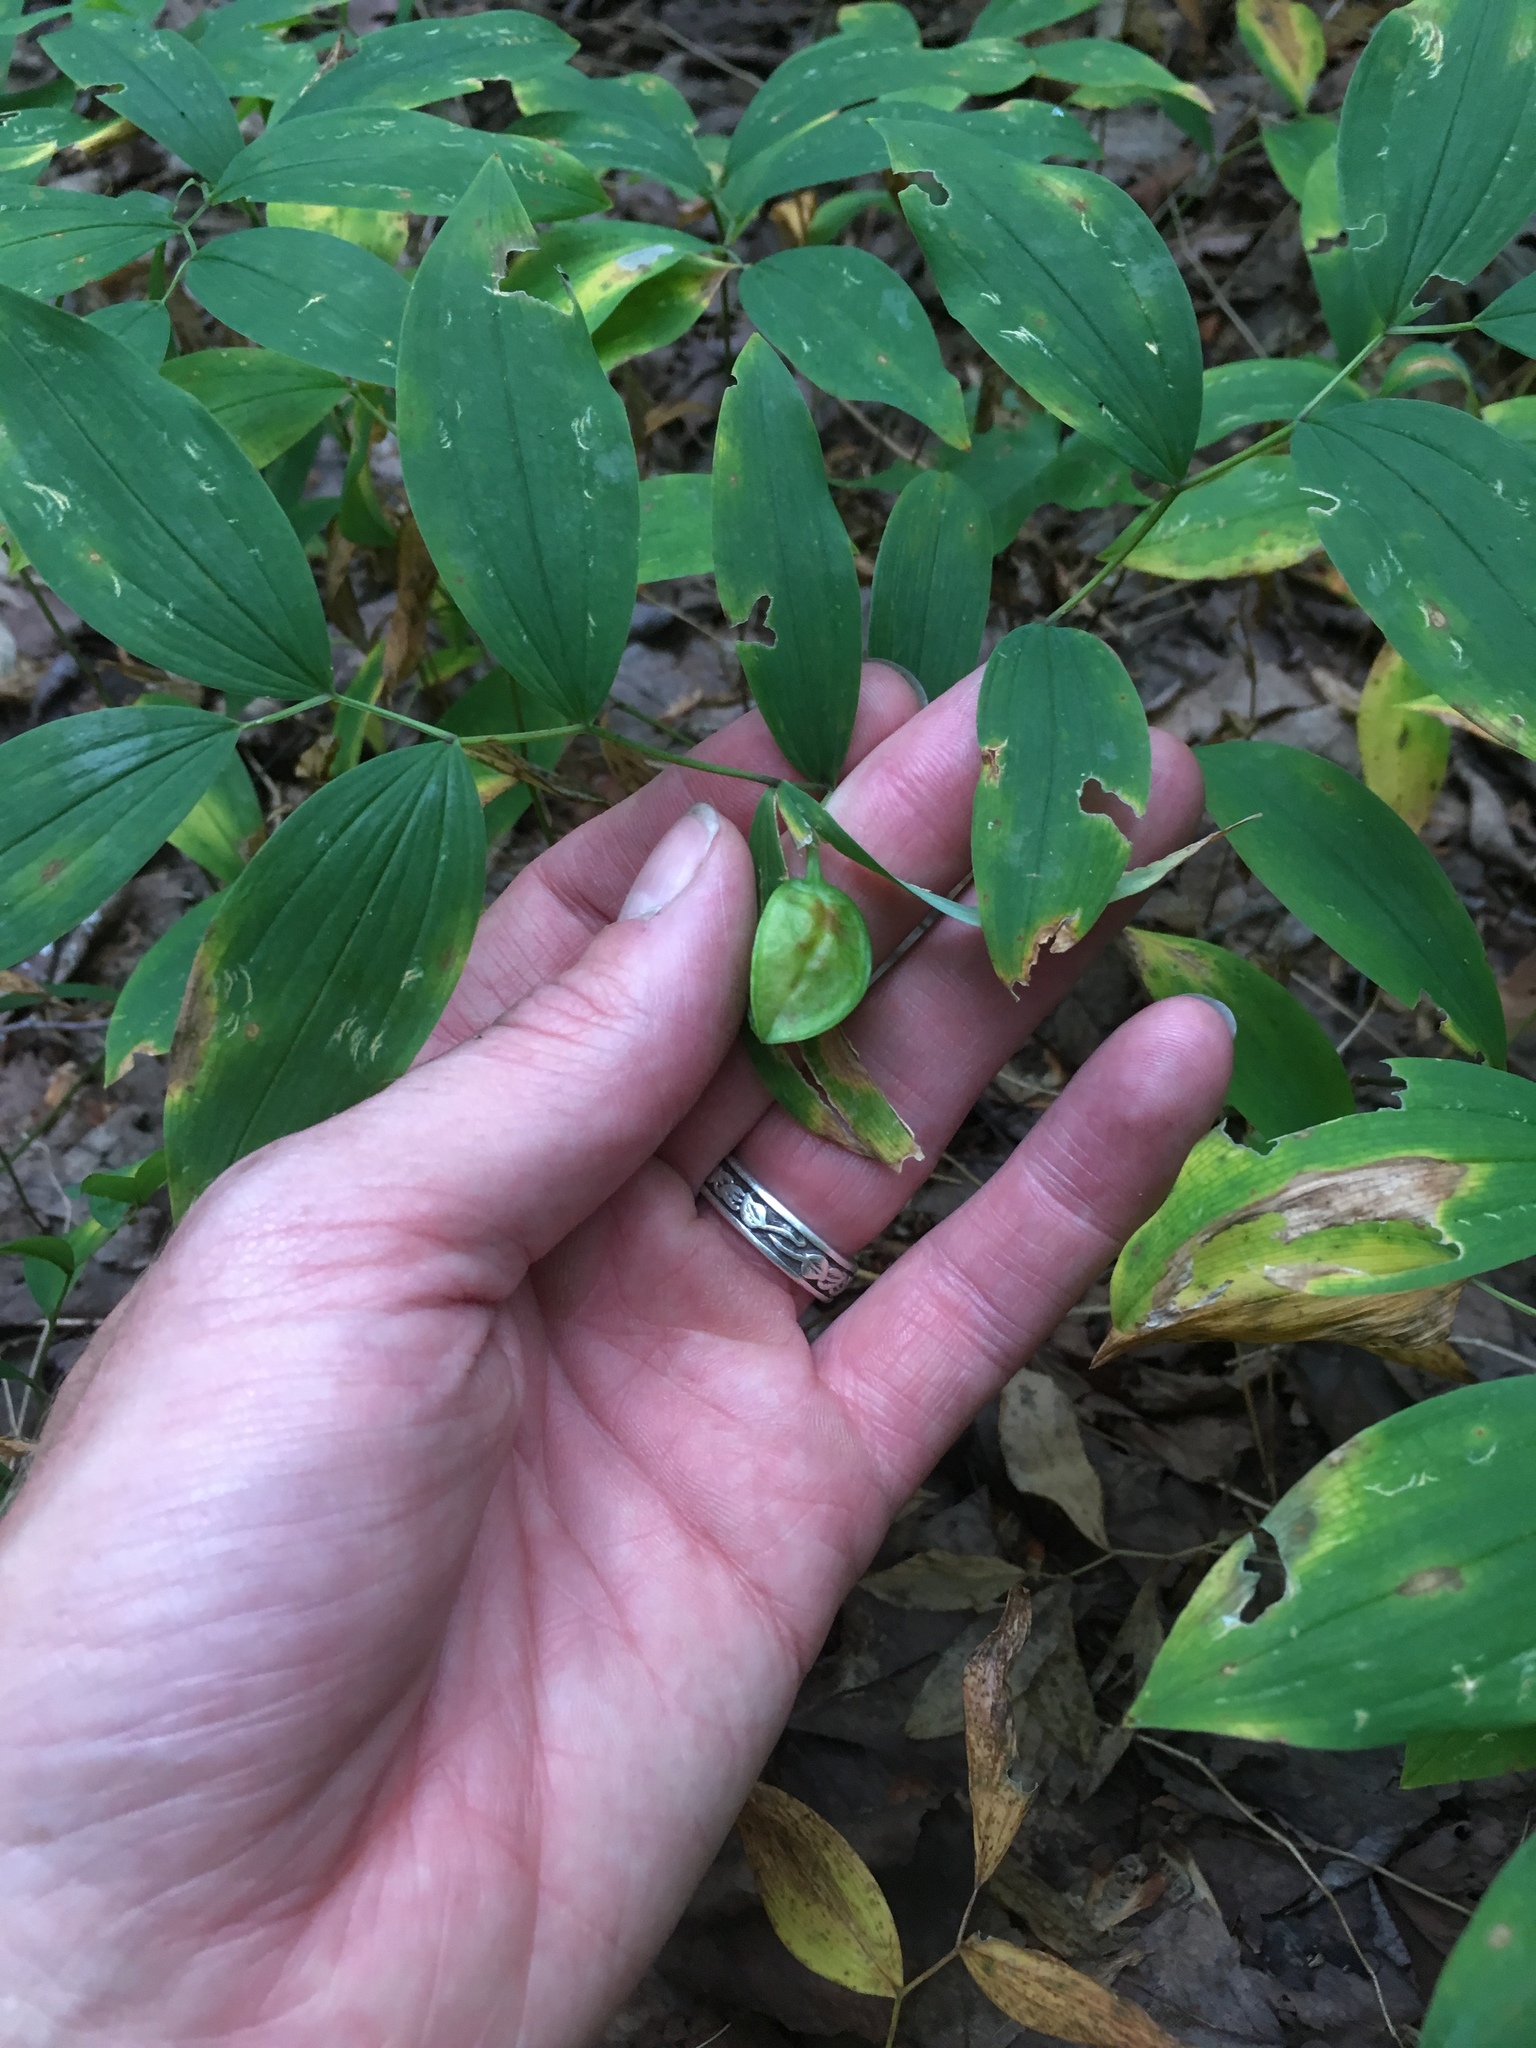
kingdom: Plantae
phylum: Tracheophyta
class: Liliopsida
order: Liliales
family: Colchicaceae
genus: Uvularia
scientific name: Uvularia sessilifolia
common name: Straw-lily
